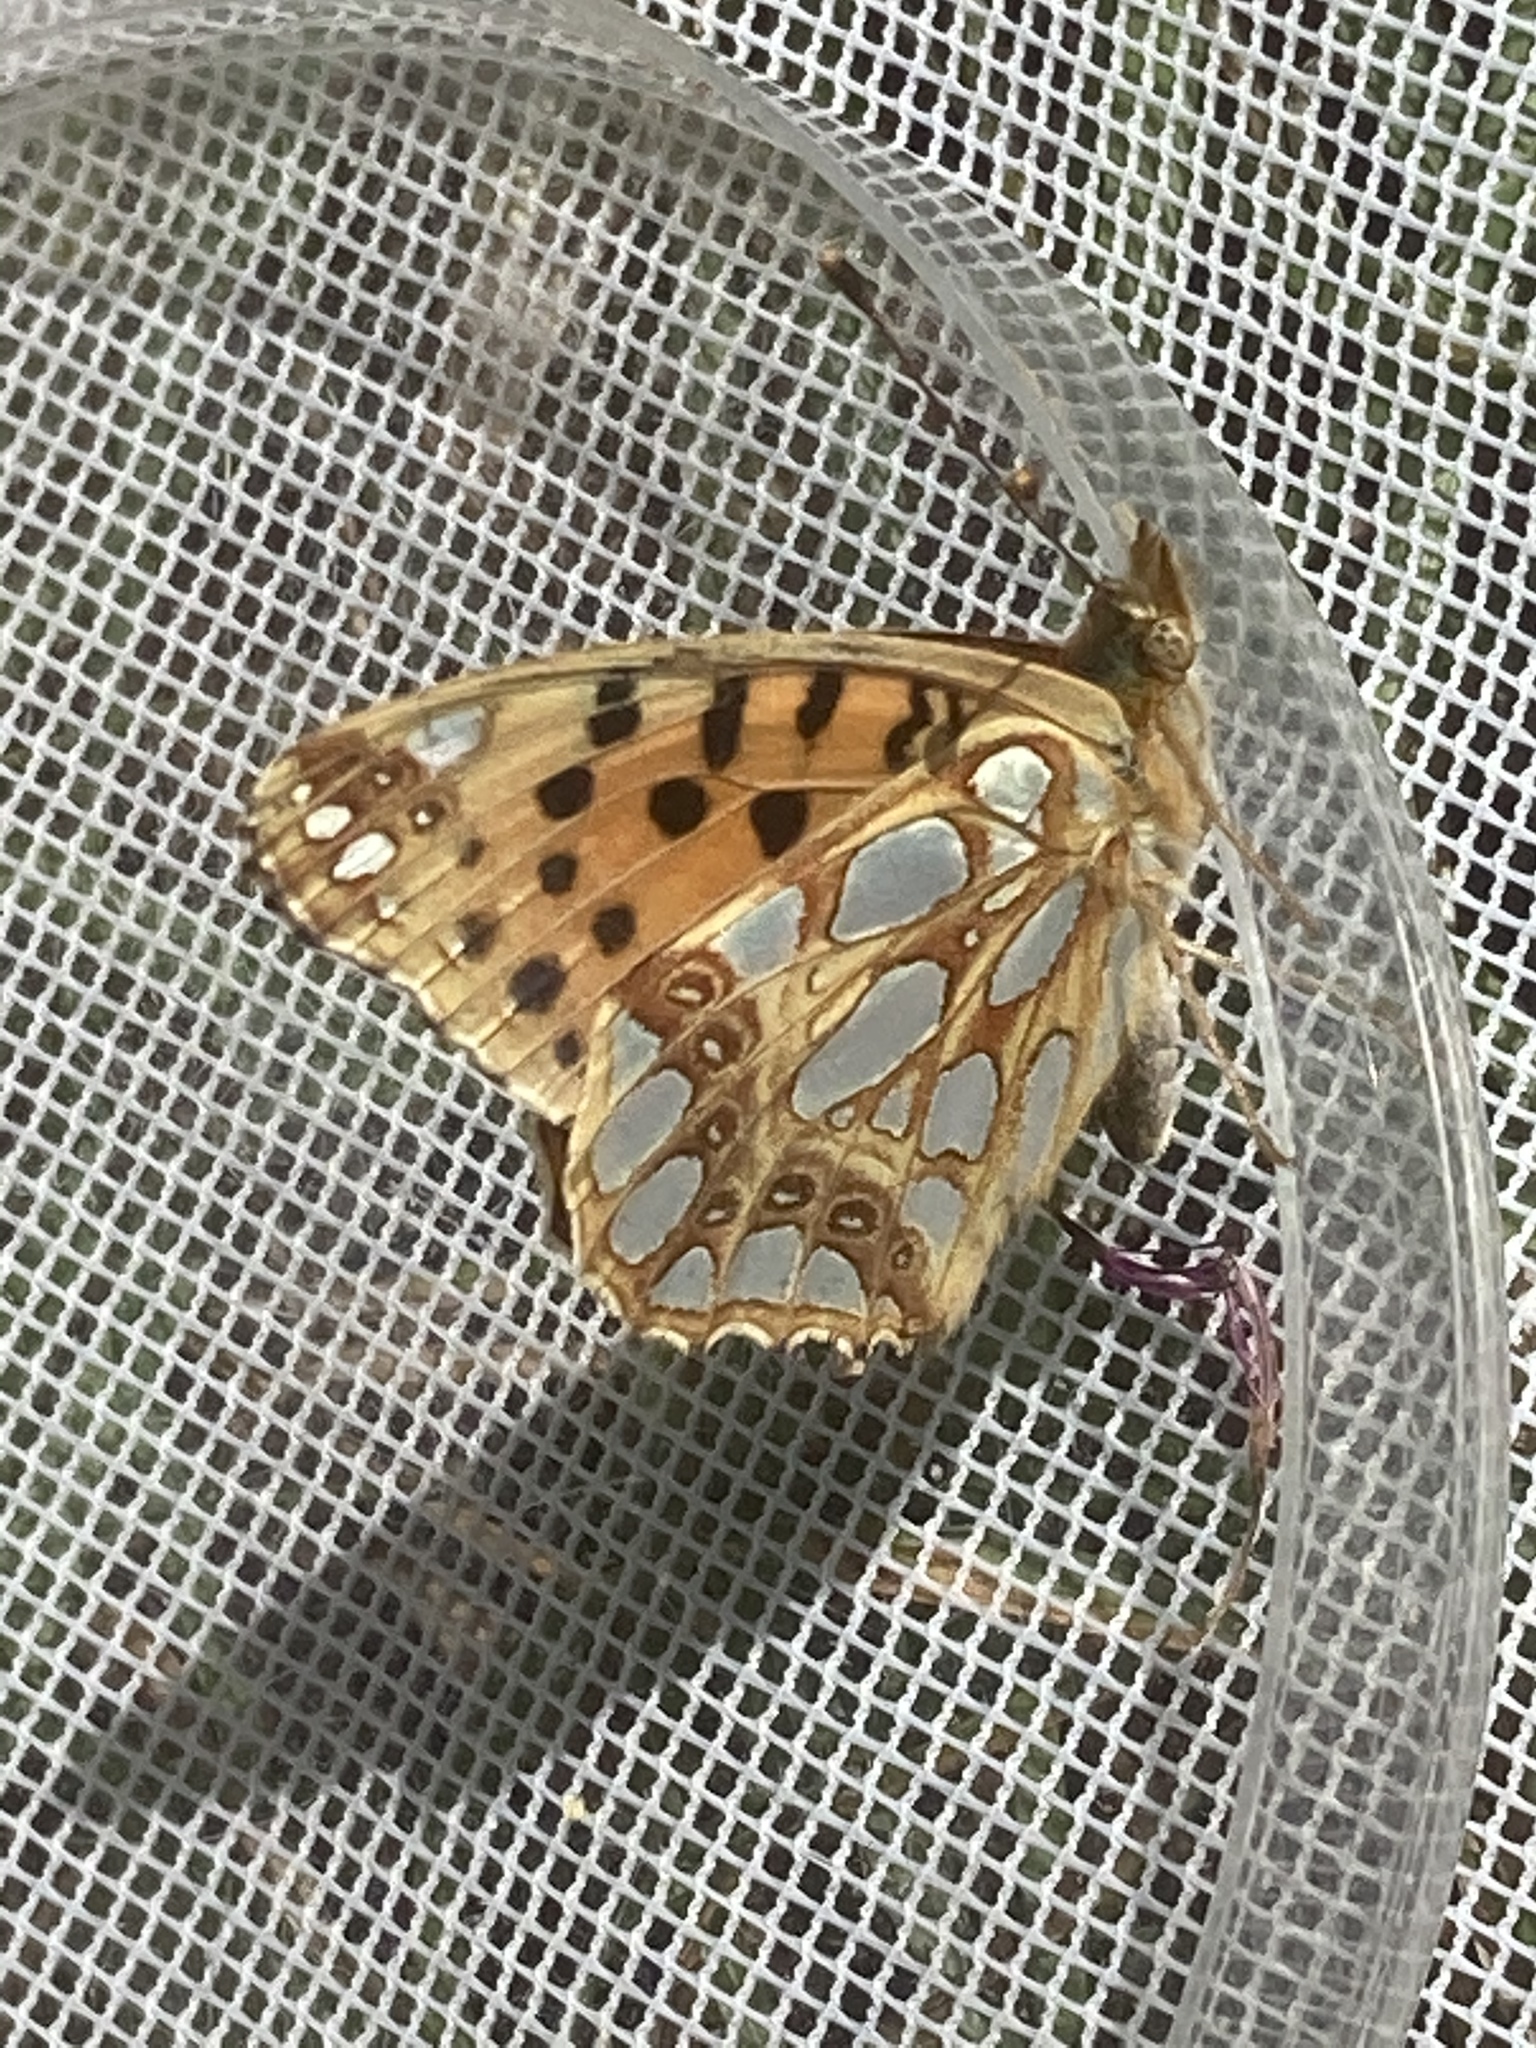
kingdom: Animalia
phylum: Arthropoda
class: Insecta
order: Lepidoptera
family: Nymphalidae
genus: Issoria
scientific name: Issoria lathonia
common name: Queen of spain fritillary
